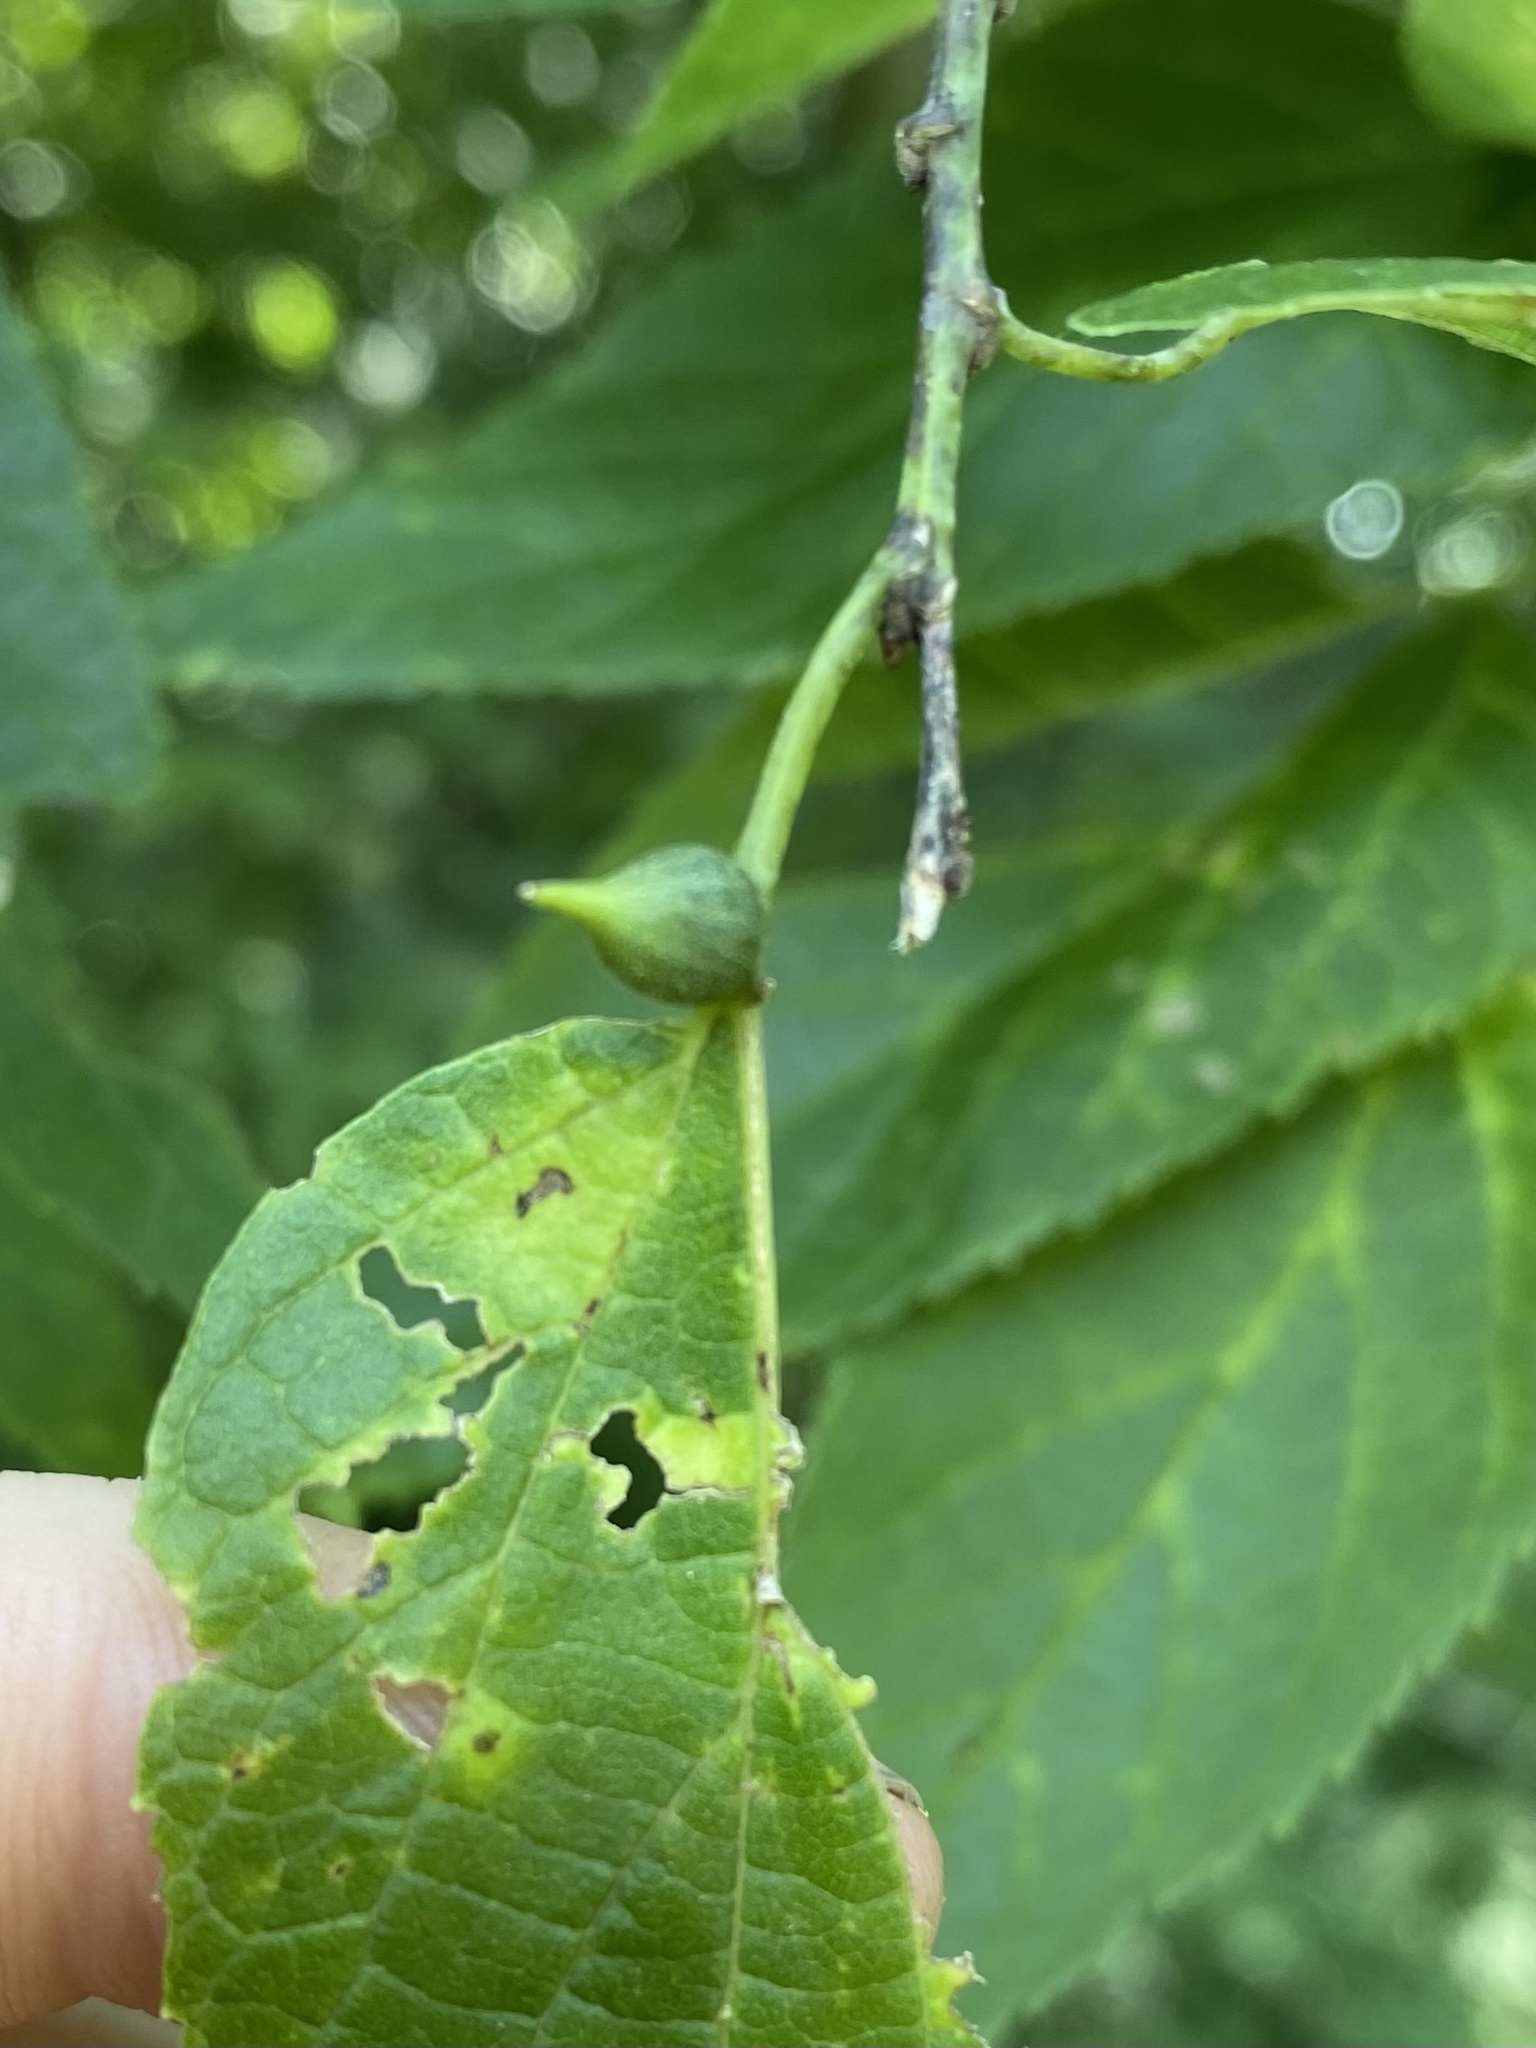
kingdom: Animalia
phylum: Arthropoda
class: Insecta
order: Diptera
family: Cecidomyiidae
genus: Celticecis
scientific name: Celticecis ovata
